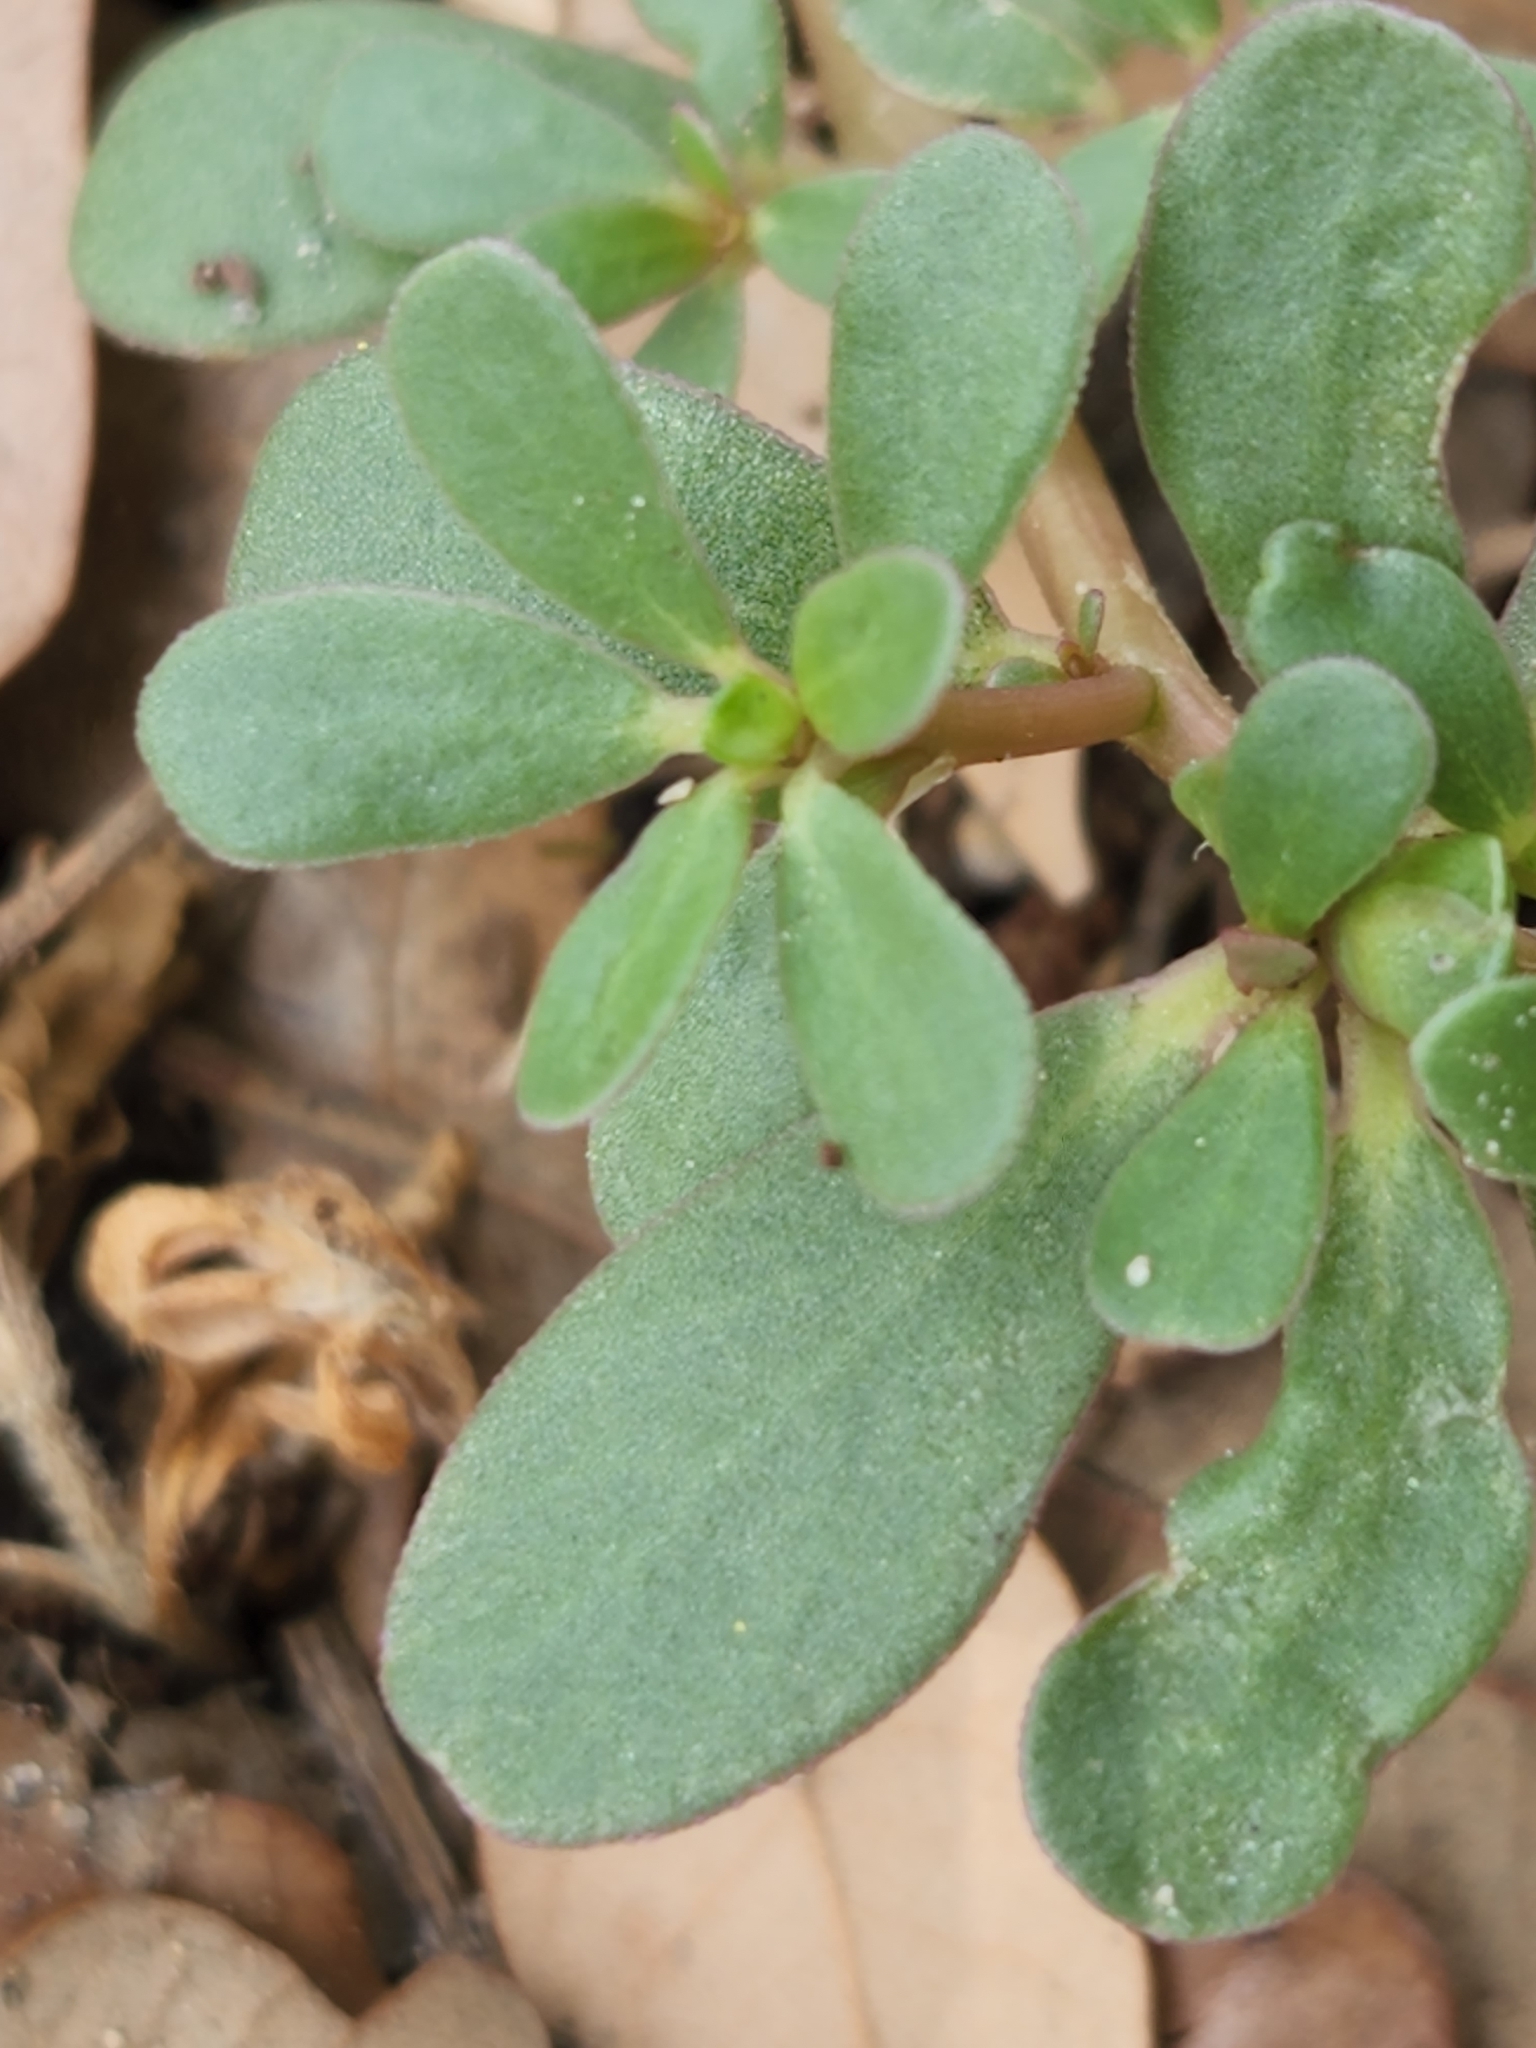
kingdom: Plantae
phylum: Tracheophyta
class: Magnoliopsida
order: Caryophyllales
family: Portulacaceae
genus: Portulaca
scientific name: Portulaca oleracea
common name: Common purslane
